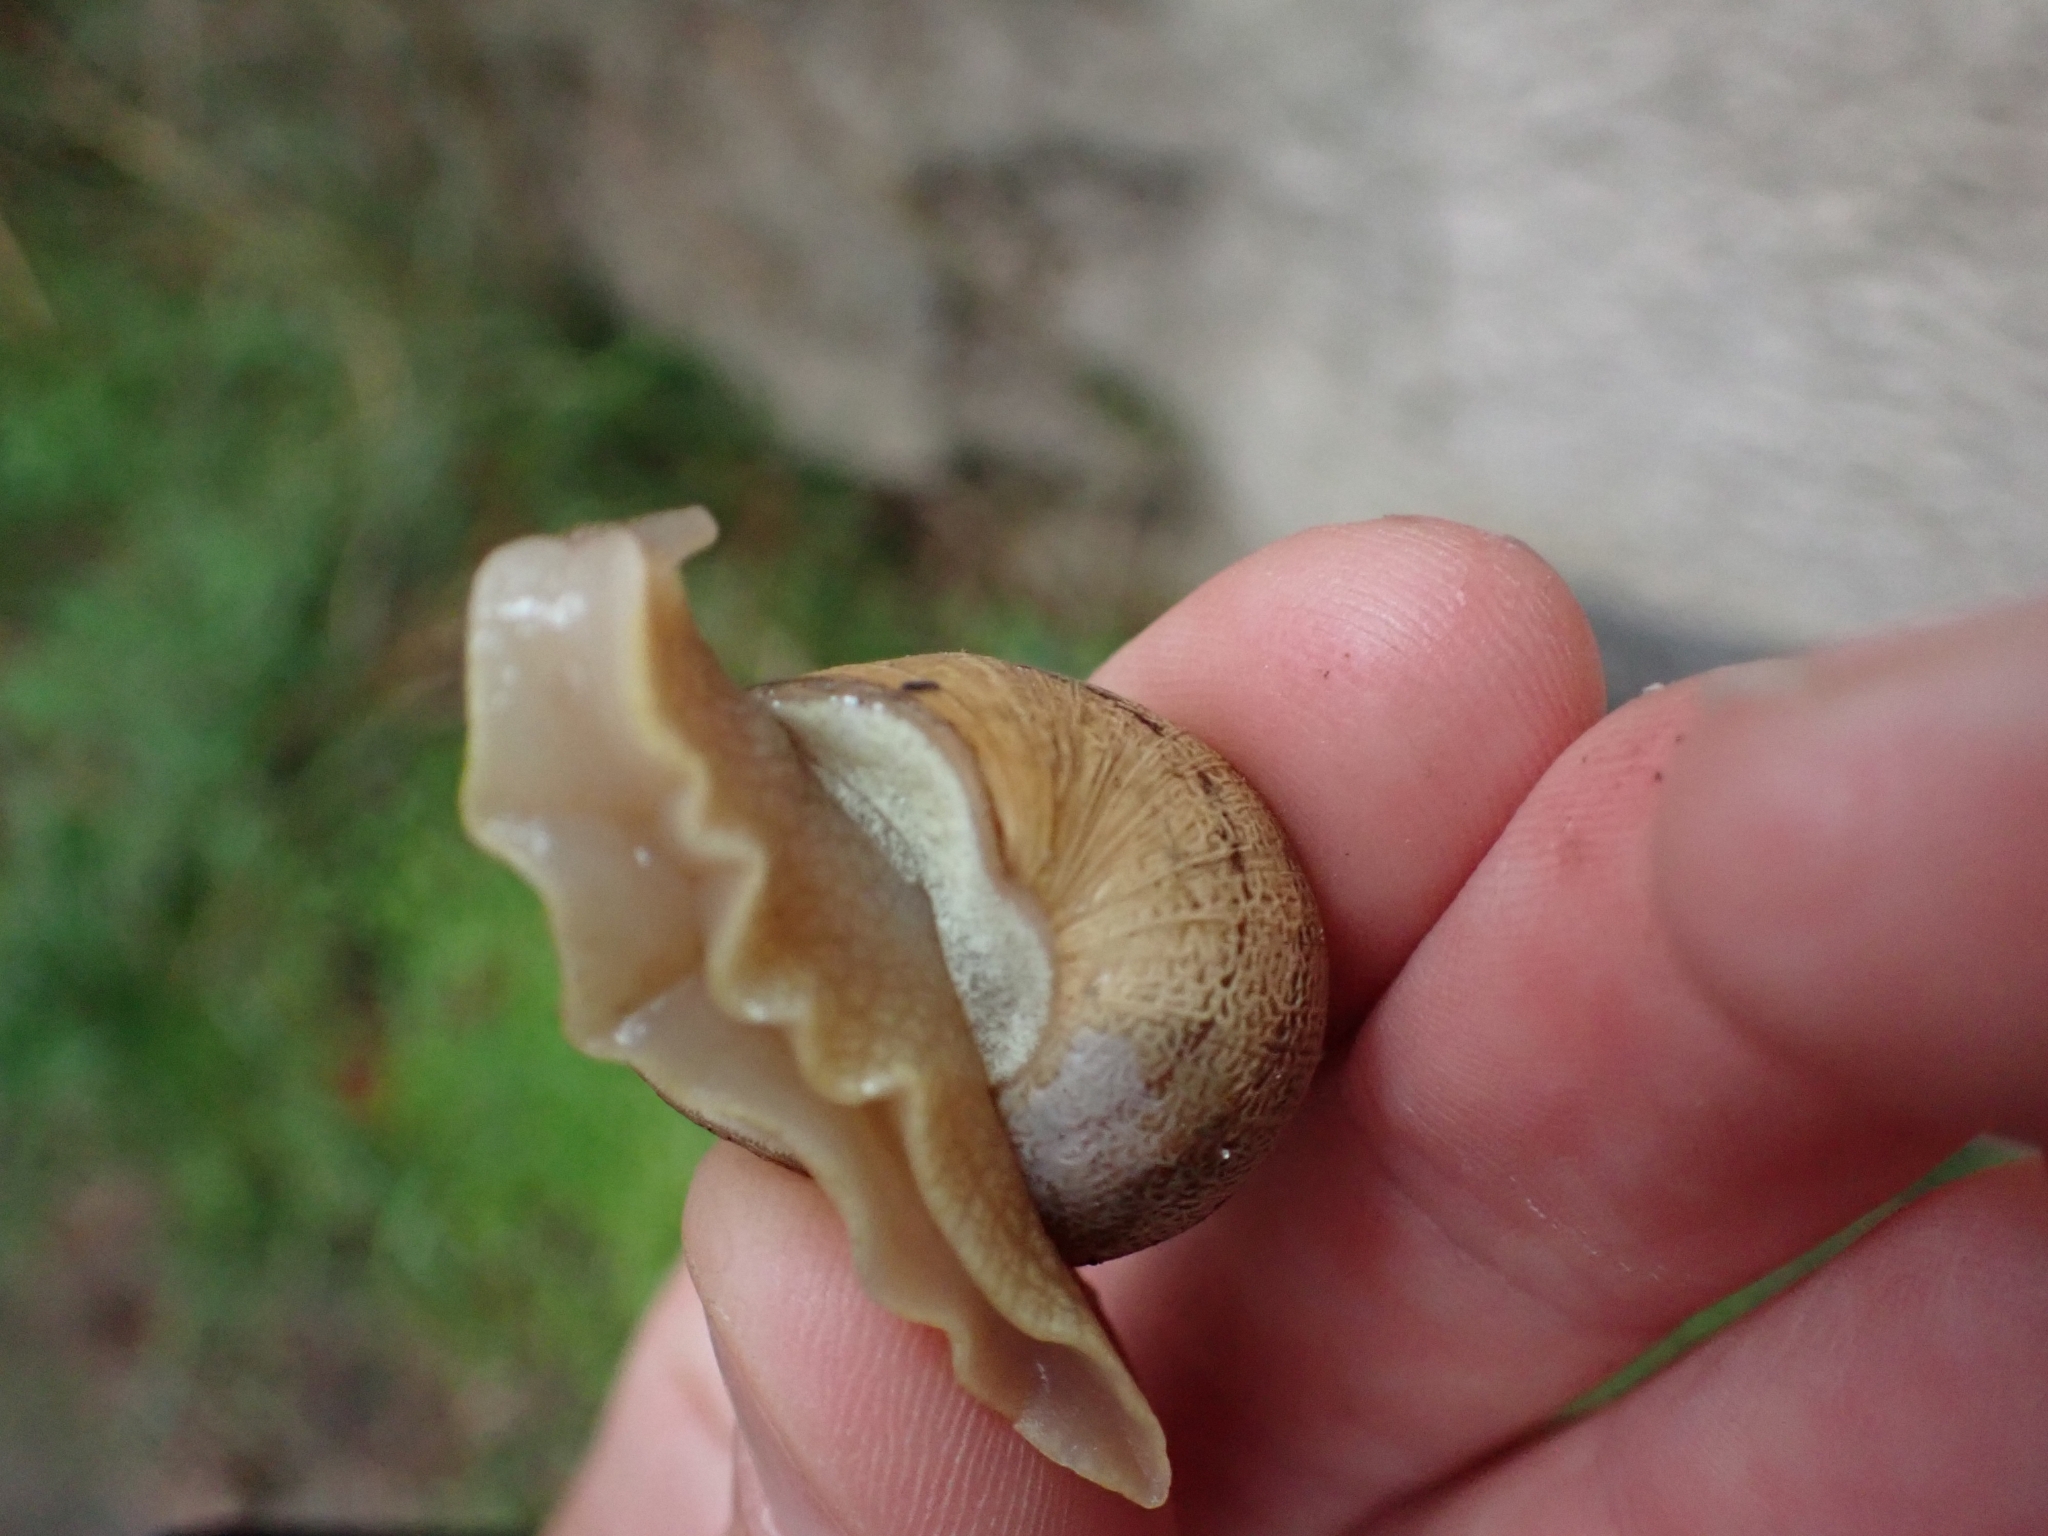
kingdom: Animalia
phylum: Mollusca
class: Gastropoda
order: Stylommatophora
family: Helicidae
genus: Cornu
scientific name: Cornu aspersum
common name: Brown garden snail
